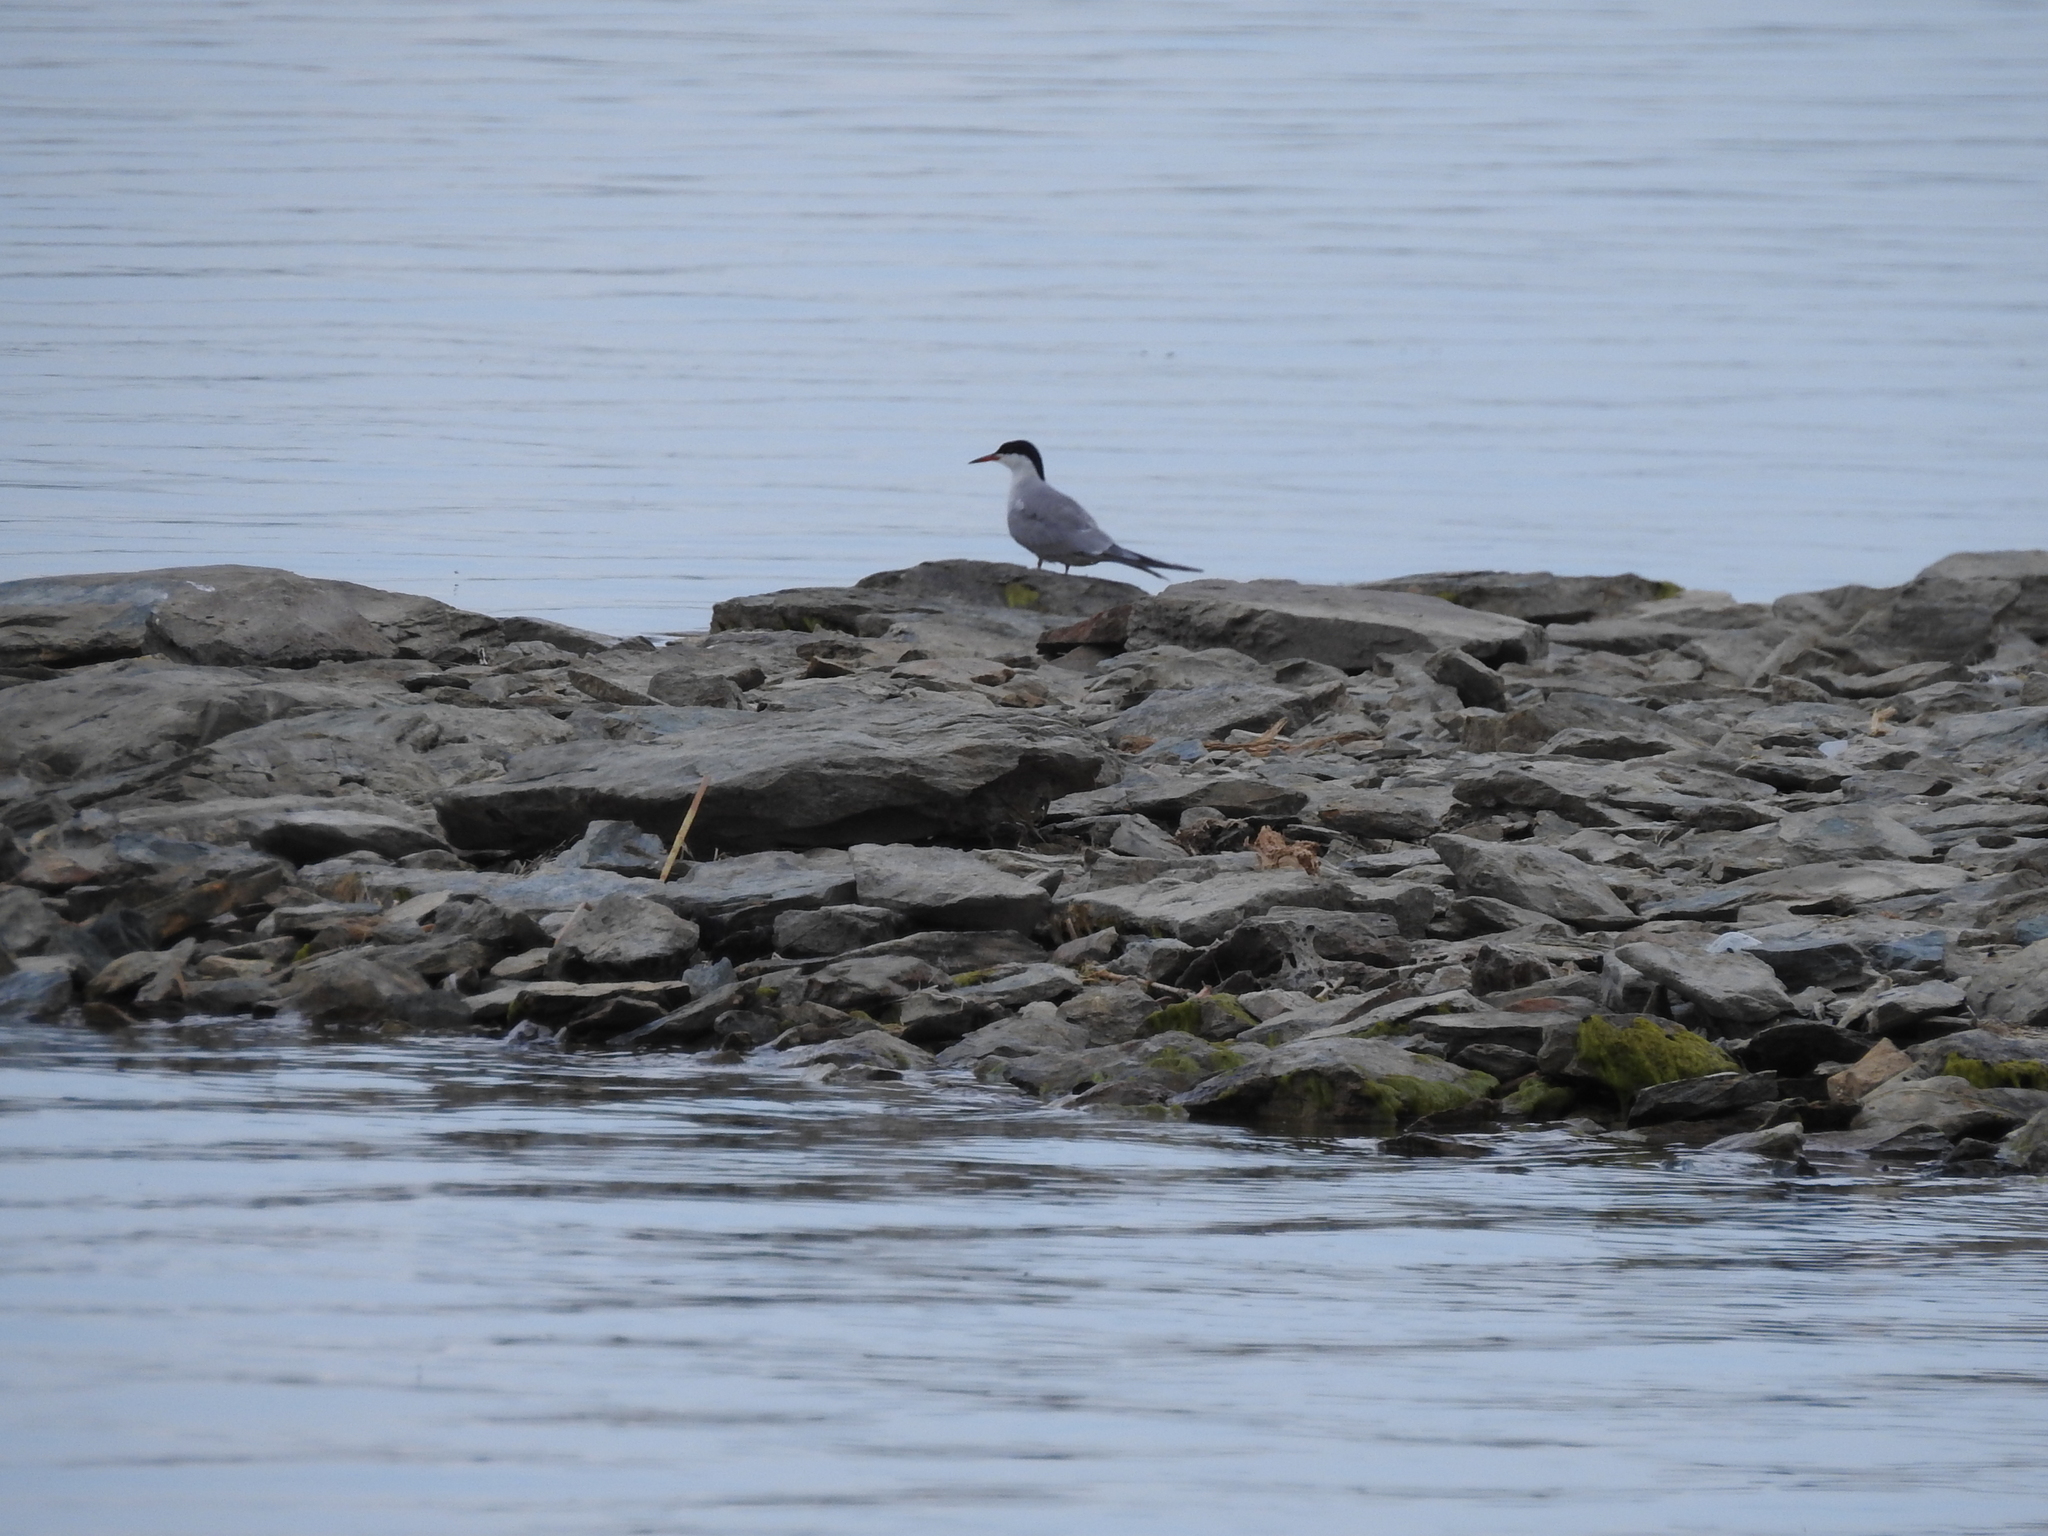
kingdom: Animalia
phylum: Chordata
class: Aves
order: Charadriiformes
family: Laridae
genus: Sterna
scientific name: Sterna hirundo
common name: Common tern
